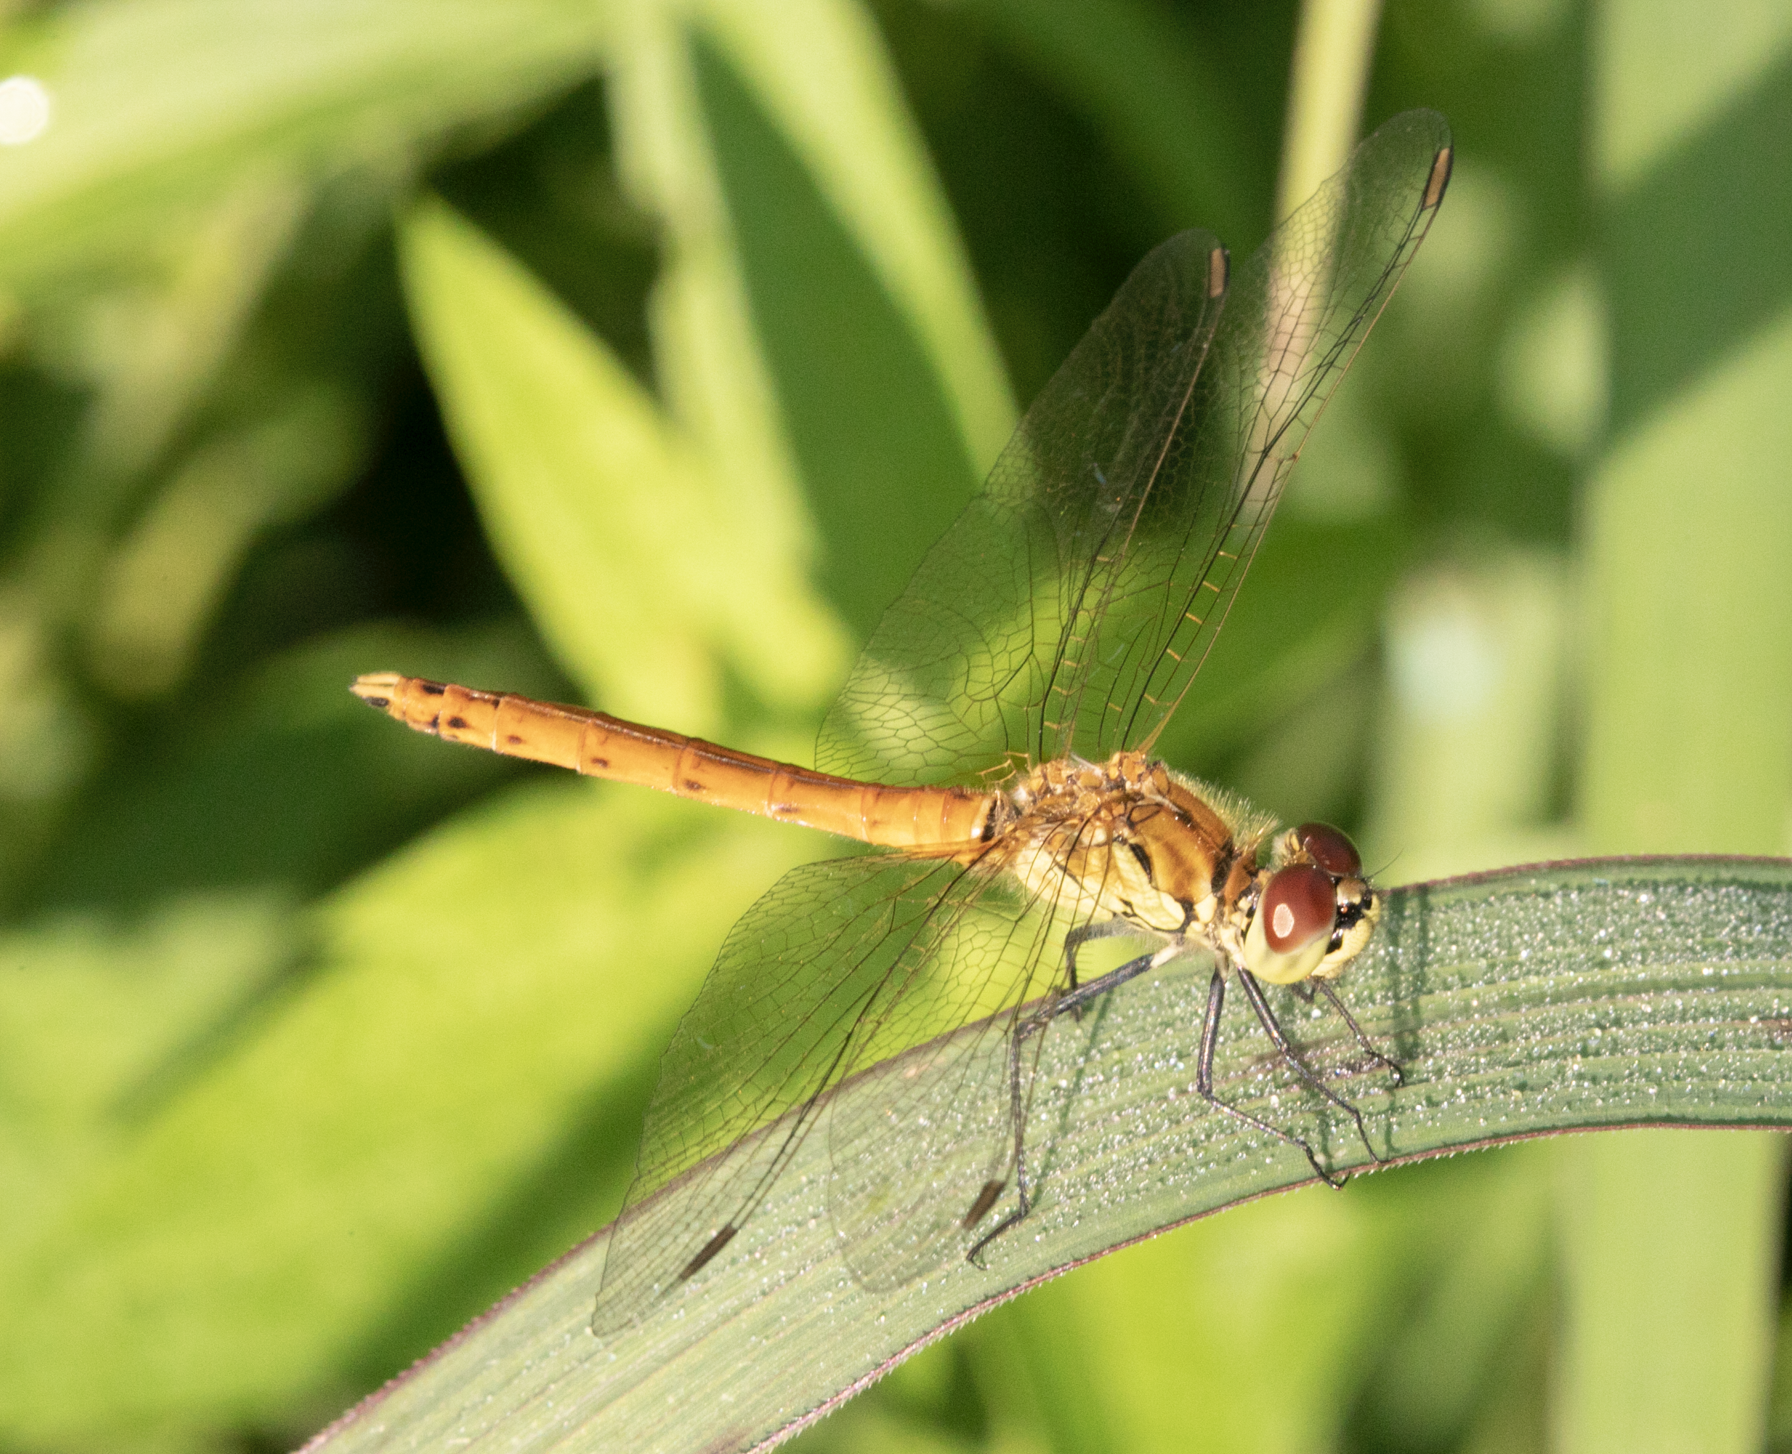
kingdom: Animalia
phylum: Arthropoda
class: Insecta
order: Odonata
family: Libellulidae
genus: Sympetrum
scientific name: Sympetrum depressiusculum
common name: Spotted darter
